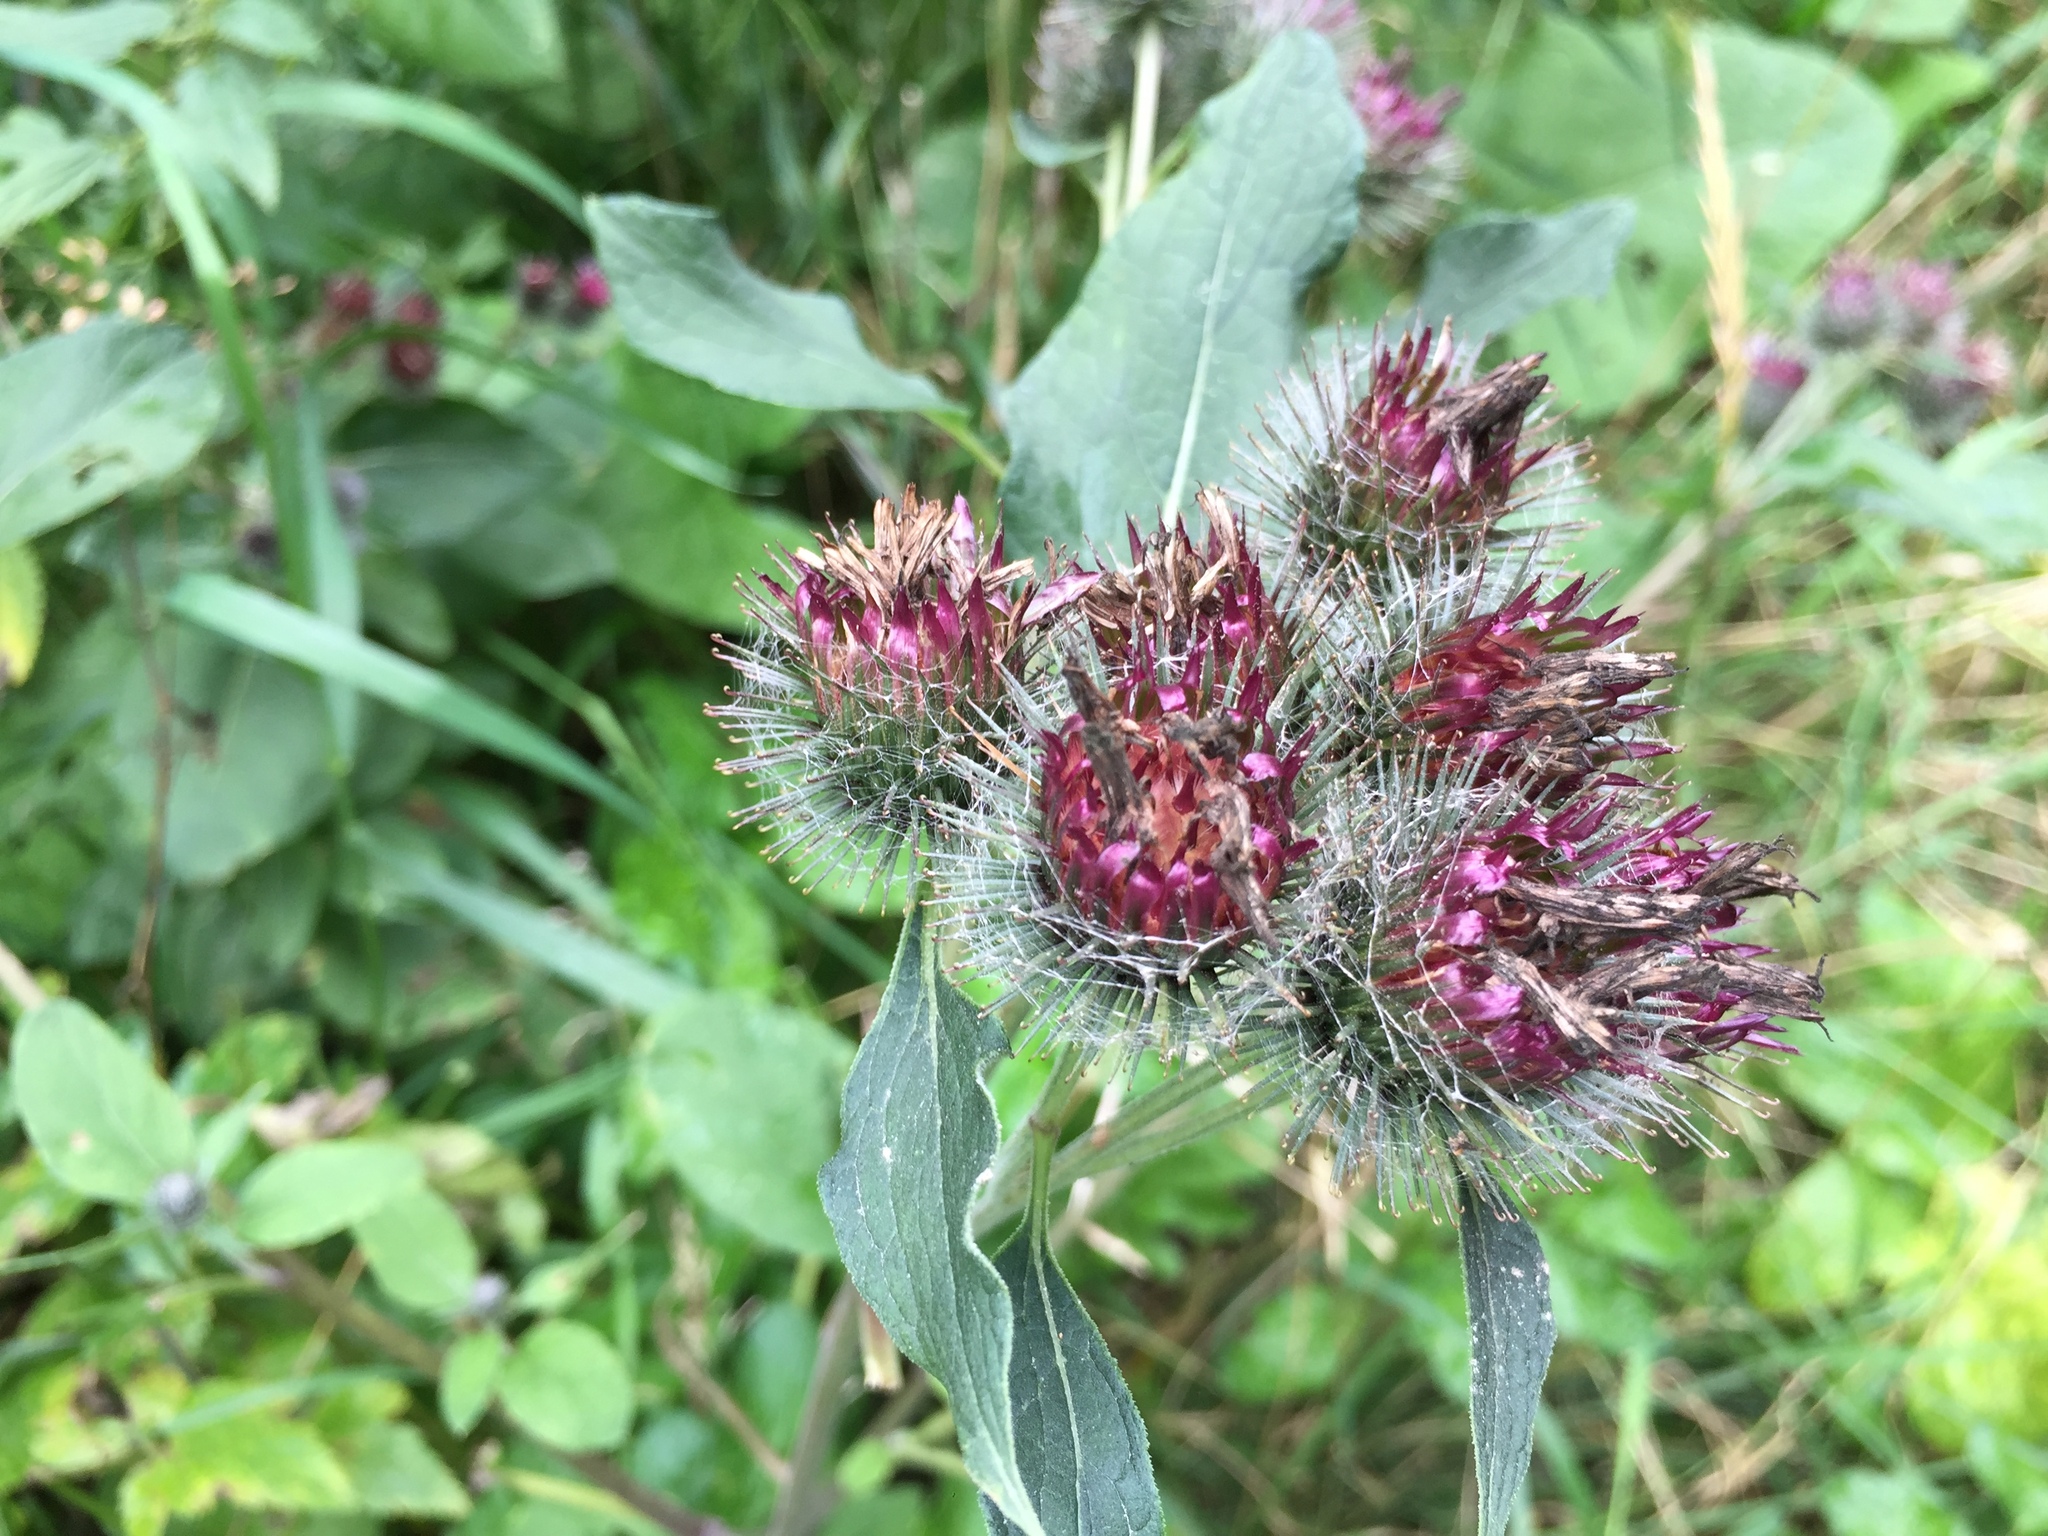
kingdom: Plantae
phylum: Tracheophyta
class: Magnoliopsida
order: Asterales
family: Asteraceae
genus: Arctium
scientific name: Arctium tomentosum
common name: Woolly burdock
